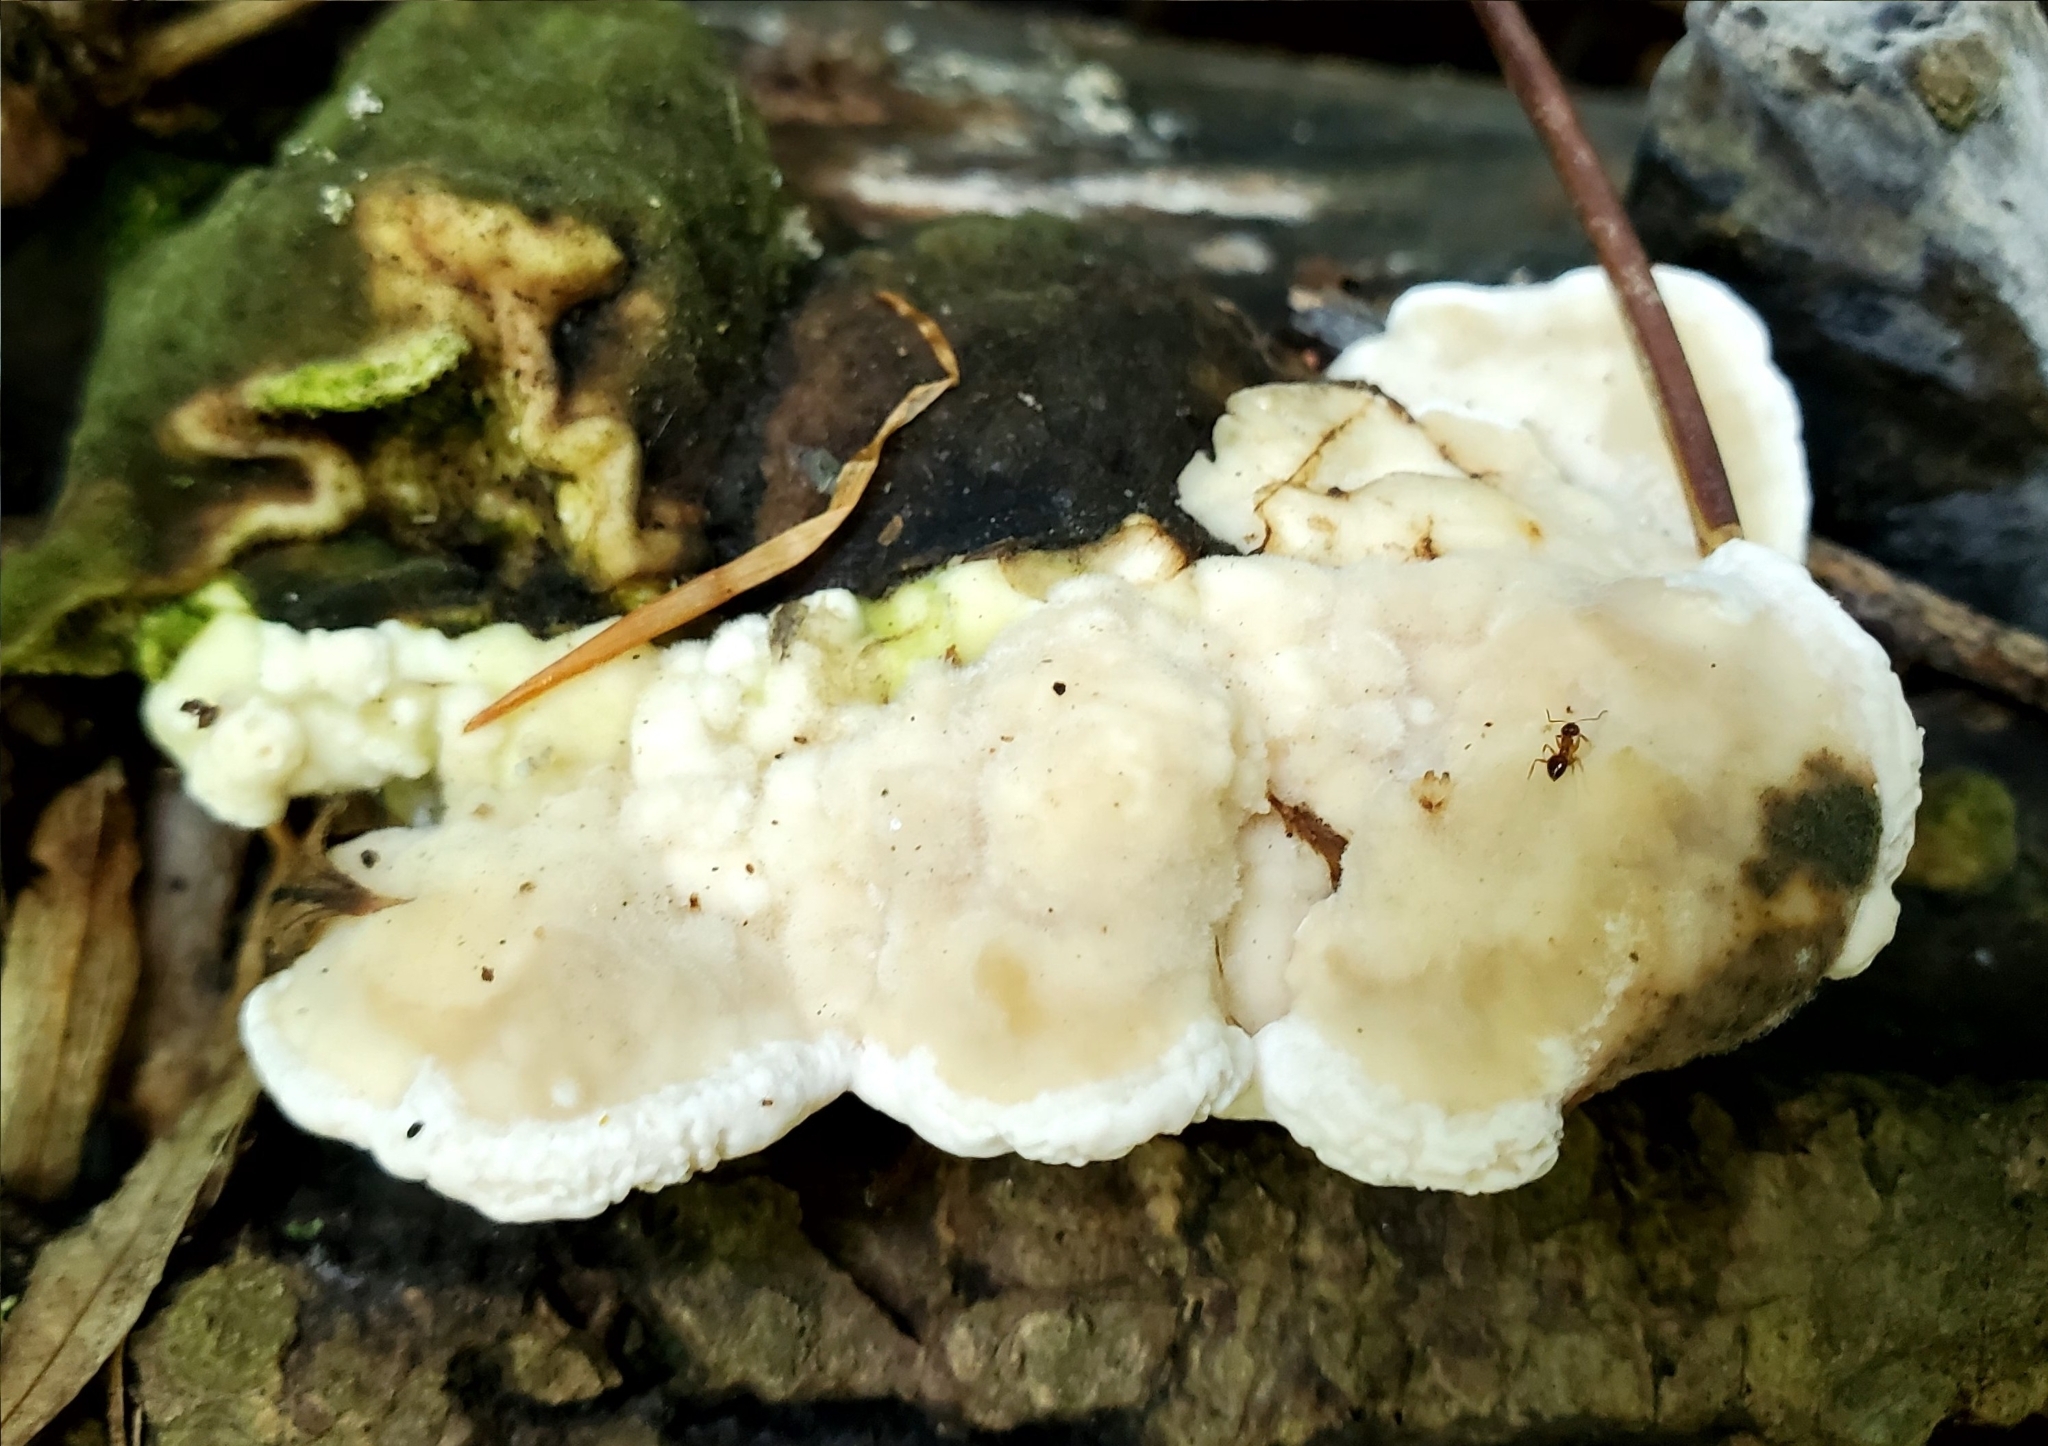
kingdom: Fungi
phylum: Basidiomycota
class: Agaricomycetes
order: Polyporales
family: Polyporaceae
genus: Trametes
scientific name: Trametes gibbosa
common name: Lumpy bracket
